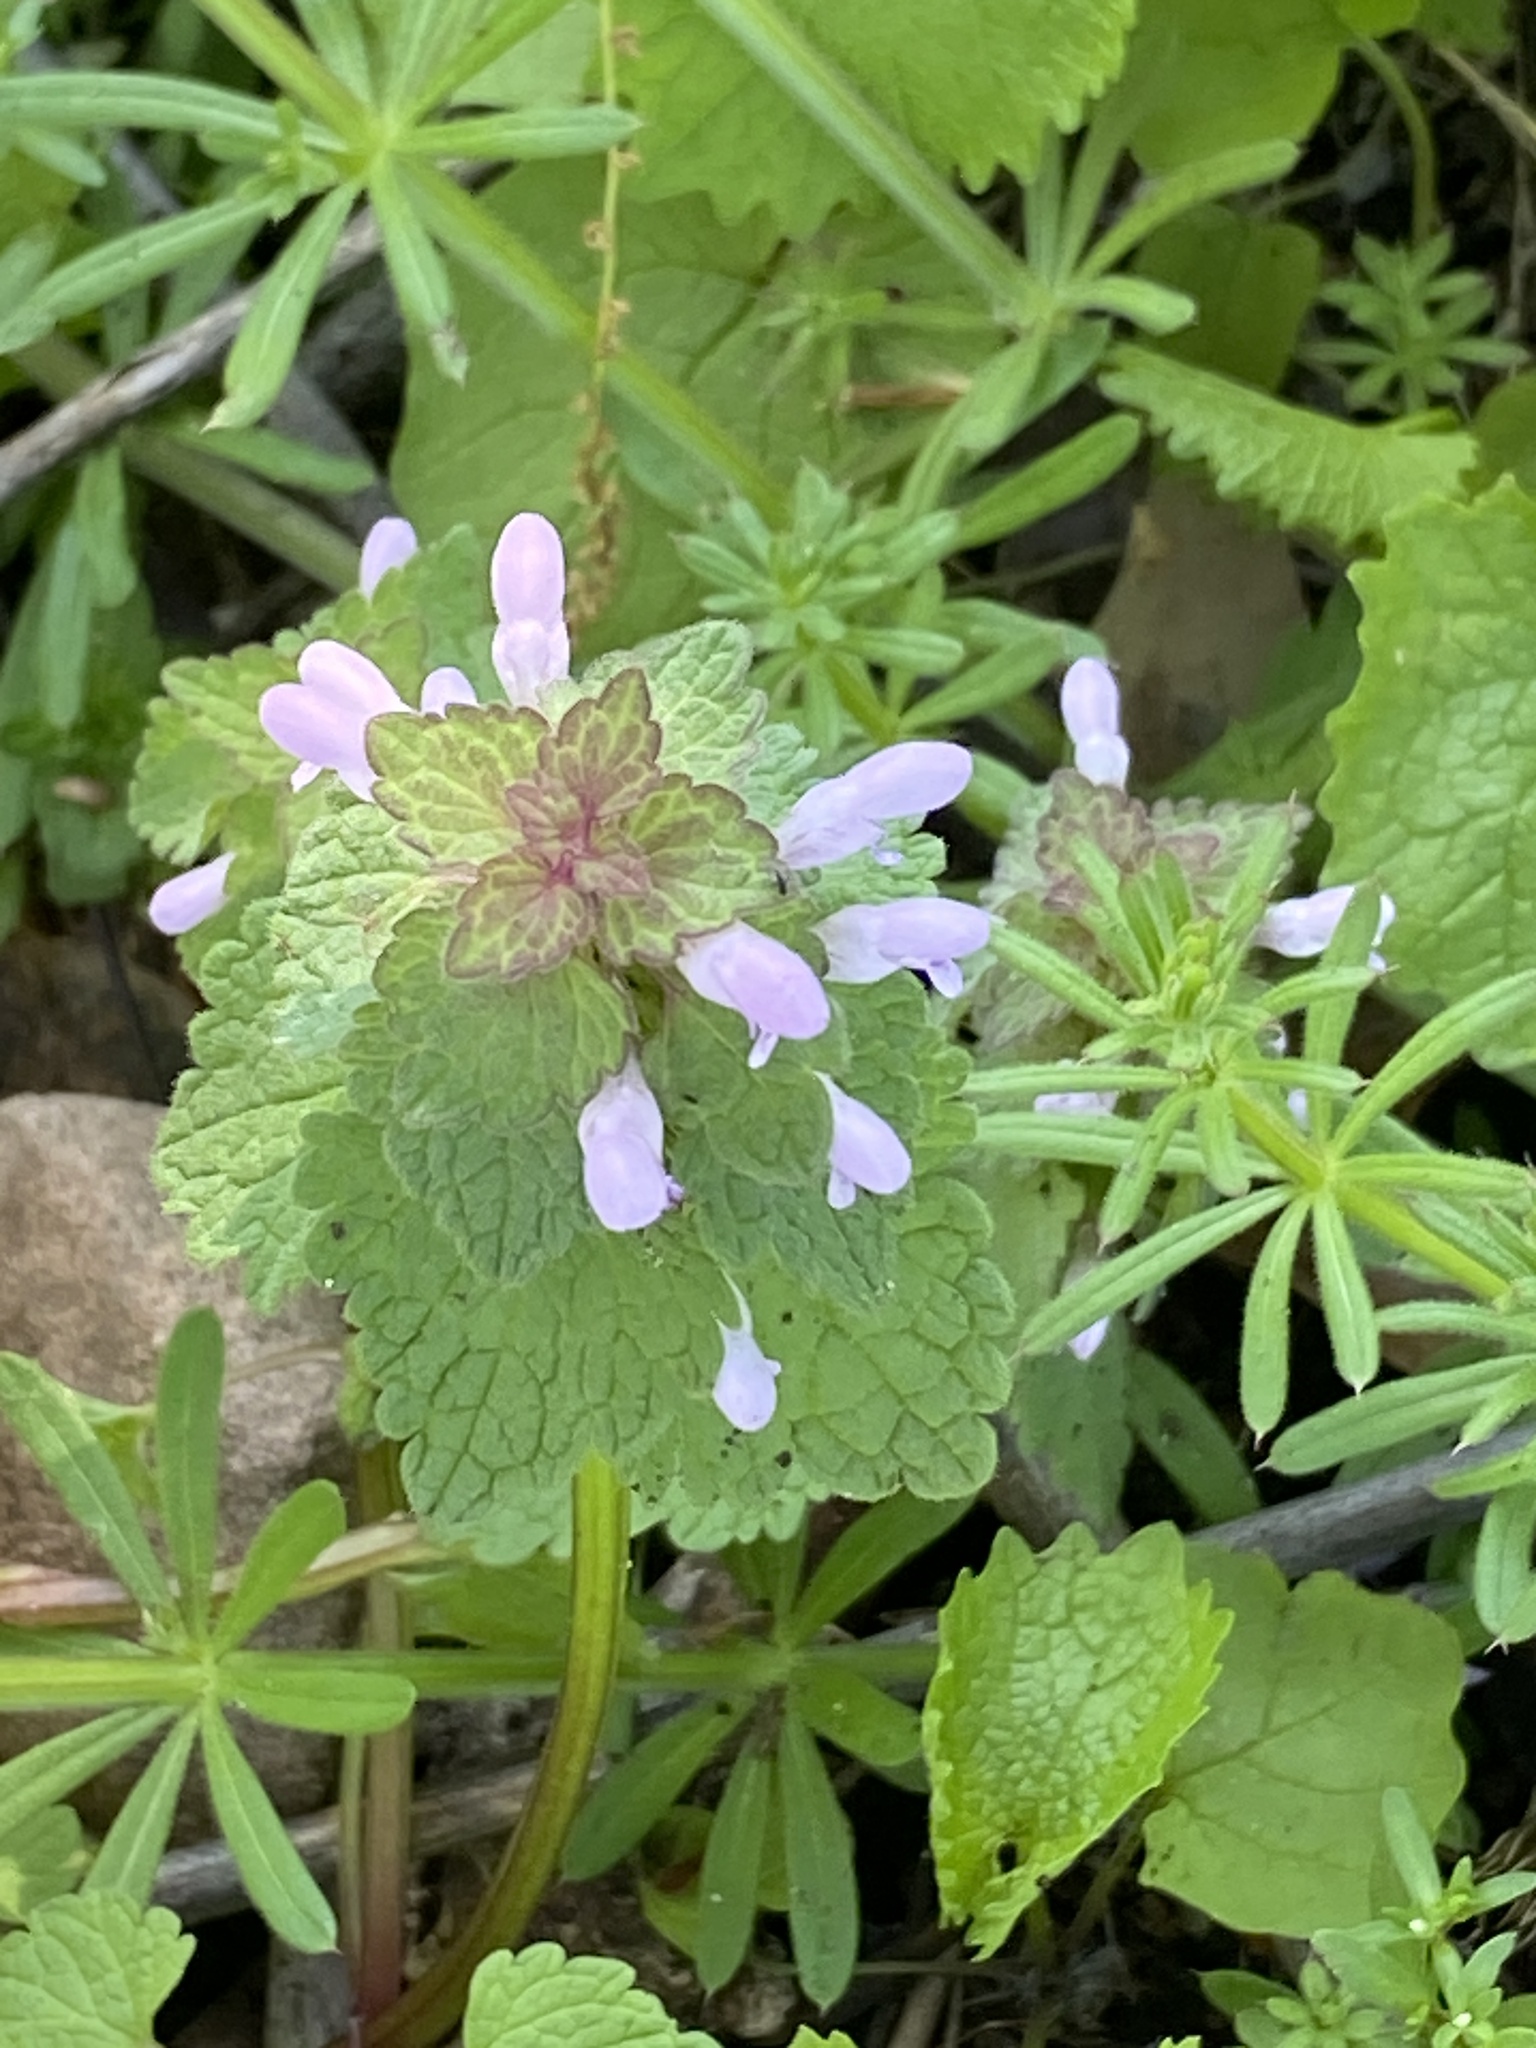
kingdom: Plantae
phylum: Tracheophyta
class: Magnoliopsida
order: Lamiales
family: Lamiaceae
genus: Lamium
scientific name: Lamium purpureum
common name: Red dead-nettle
